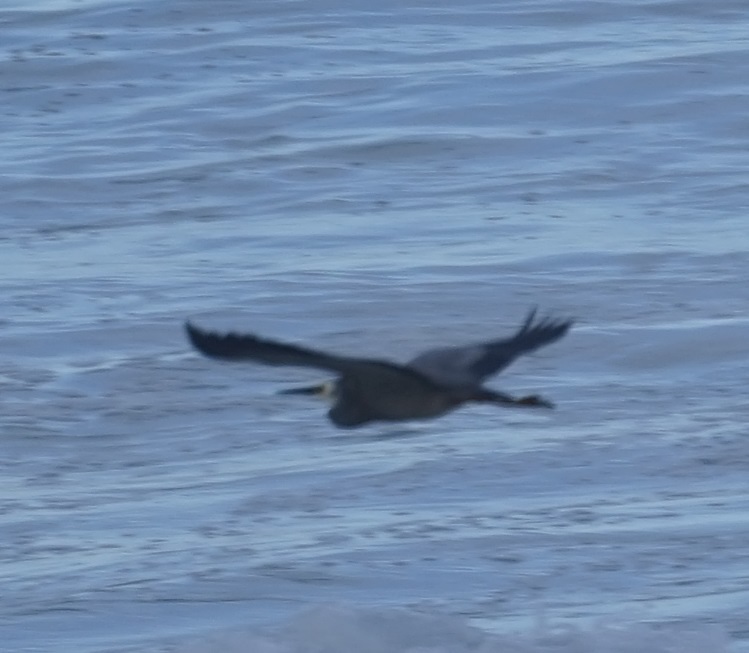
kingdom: Animalia
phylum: Chordata
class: Aves
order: Pelecaniformes
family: Ardeidae
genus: Egretta
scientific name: Egretta novaehollandiae
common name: White-faced heron
